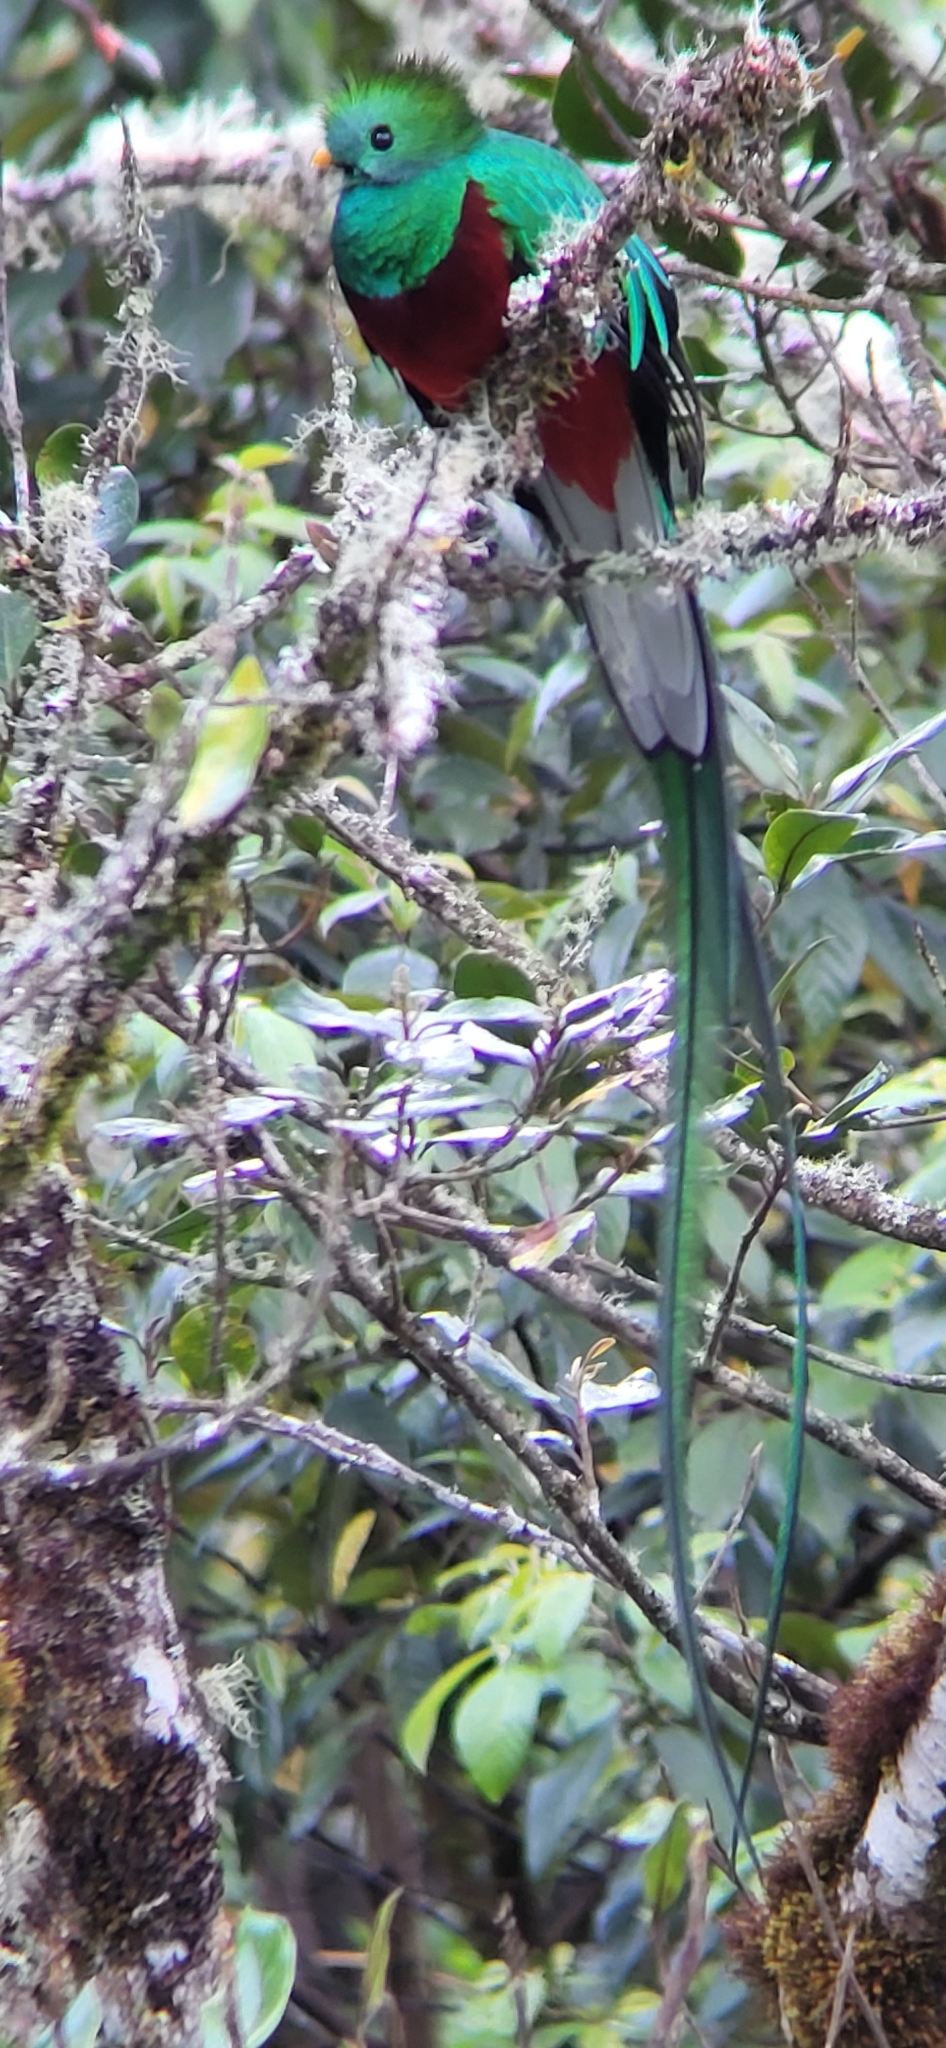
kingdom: Animalia
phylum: Chordata
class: Aves
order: Trogoniformes
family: Trogonidae
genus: Pharomachrus
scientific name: Pharomachrus mocinno
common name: Resplendent quetzal
